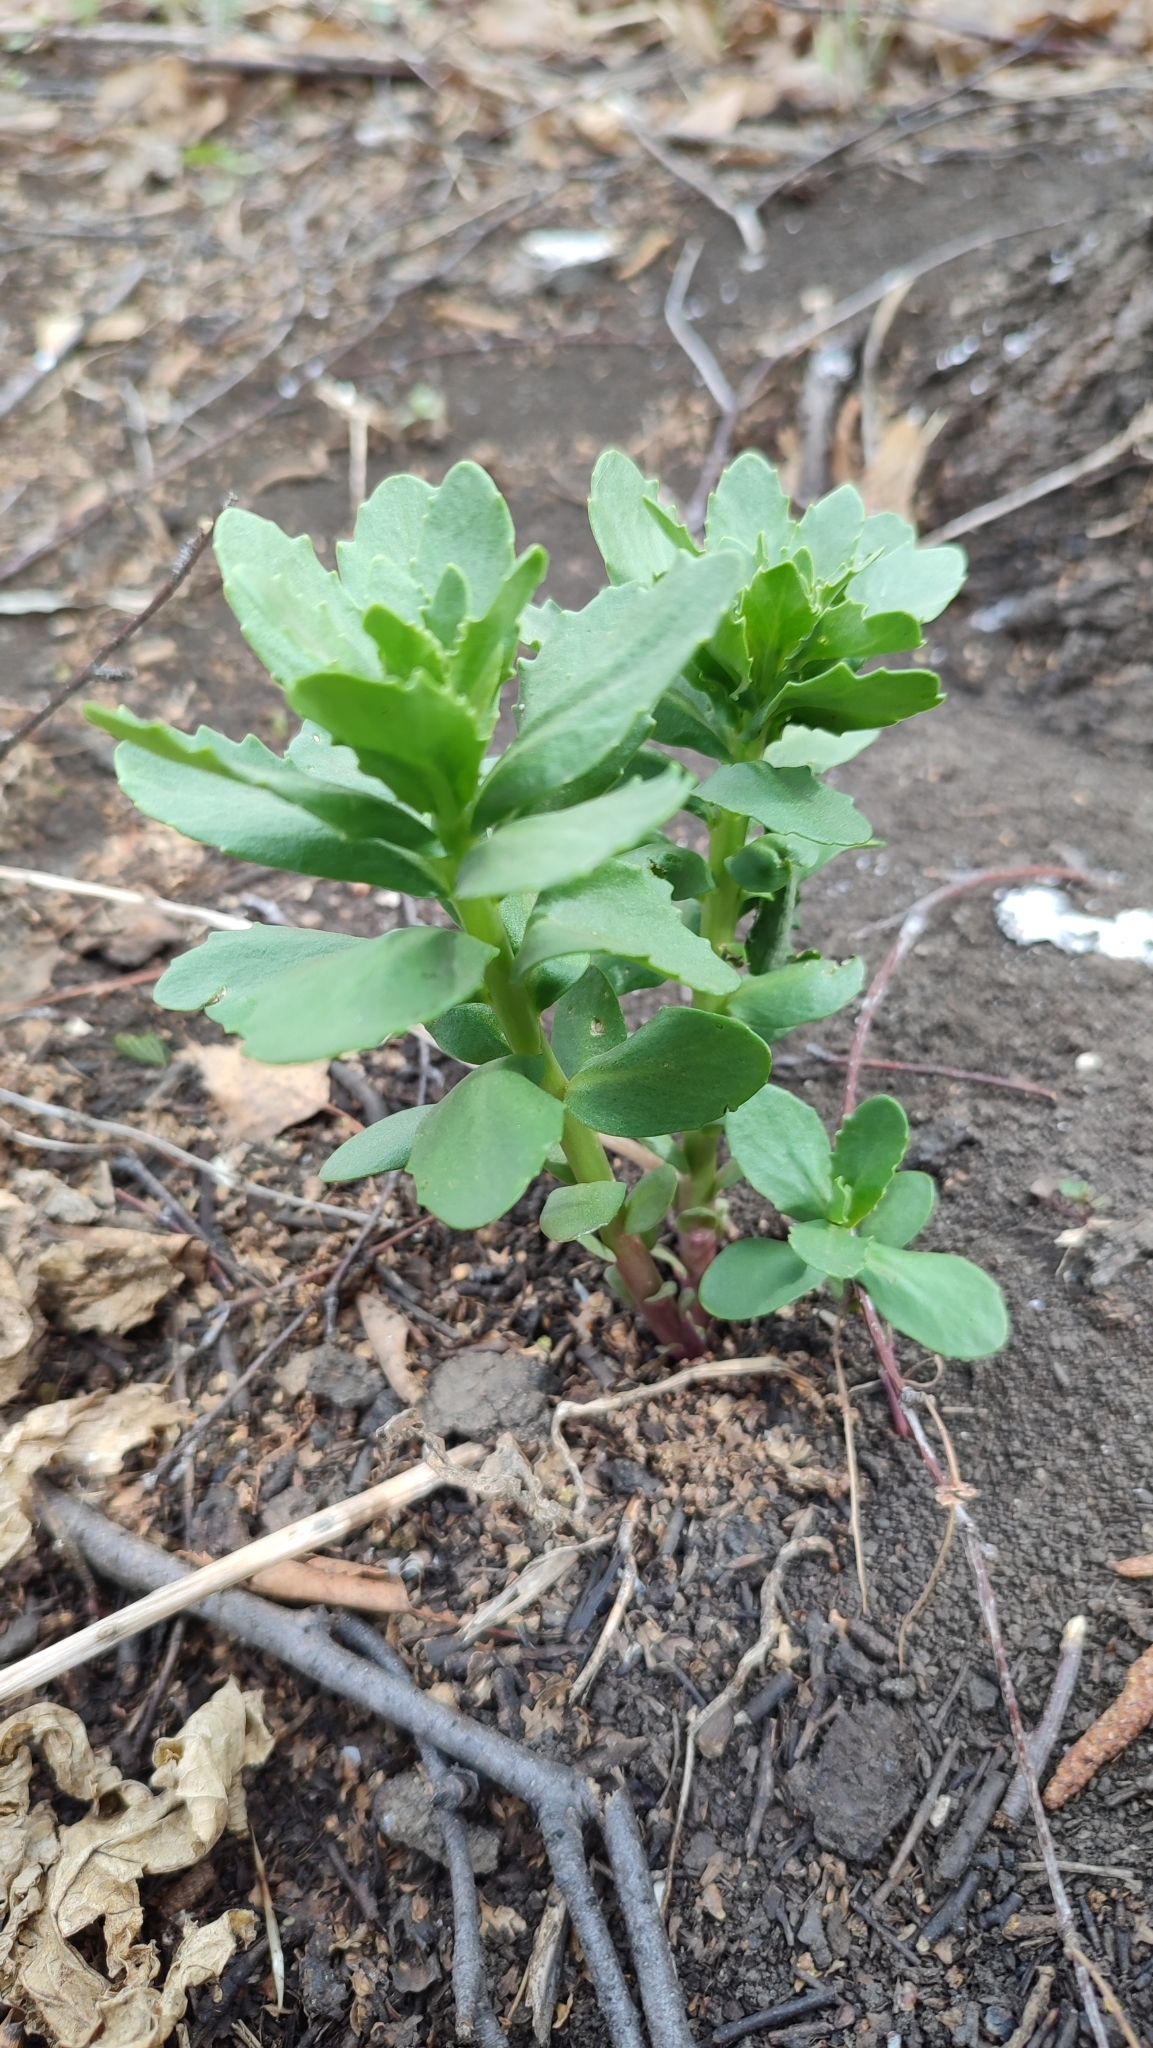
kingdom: Plantae
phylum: Tracheophyta
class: Magnoliopsida
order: Saxifragales
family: Crassulaceae
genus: Hylotelephium
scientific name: Hylotelephium telephium
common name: Live-forever
